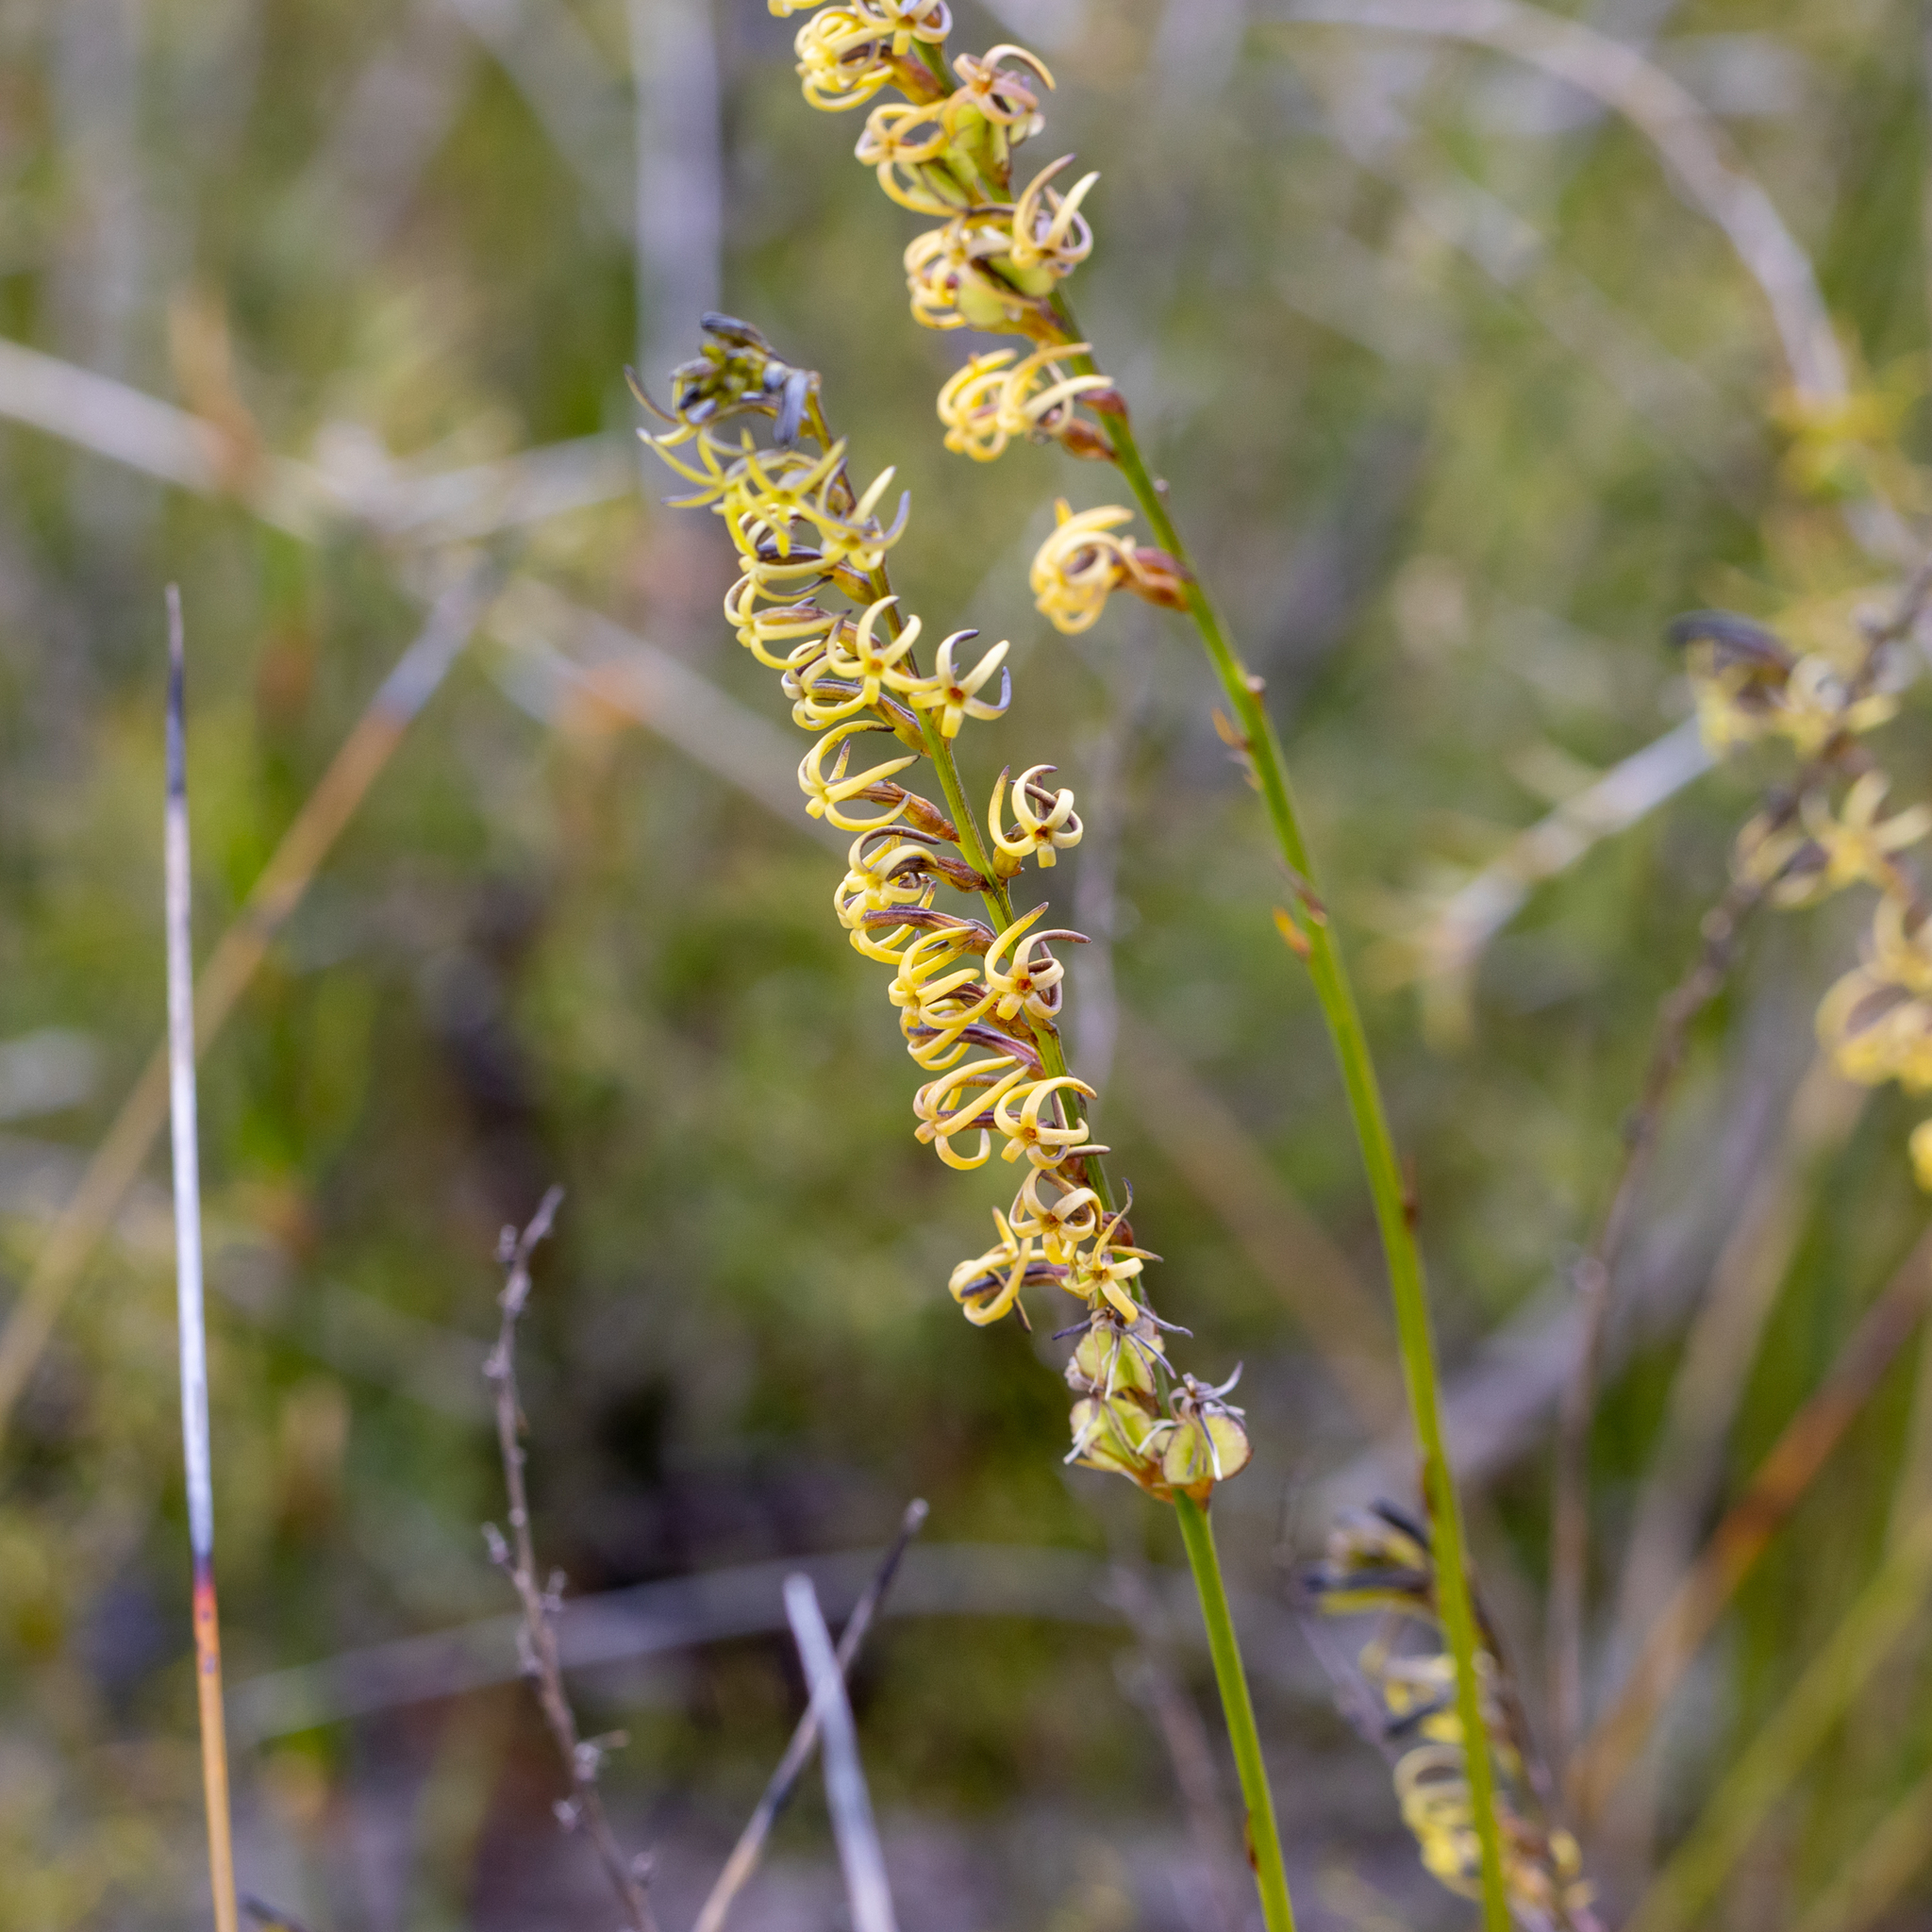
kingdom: Plantae
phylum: Tracheophyta
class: Magnoliopsida
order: Celastrales
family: Celastraceae
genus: Tripterococcus
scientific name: Tripterococcus brunonis
